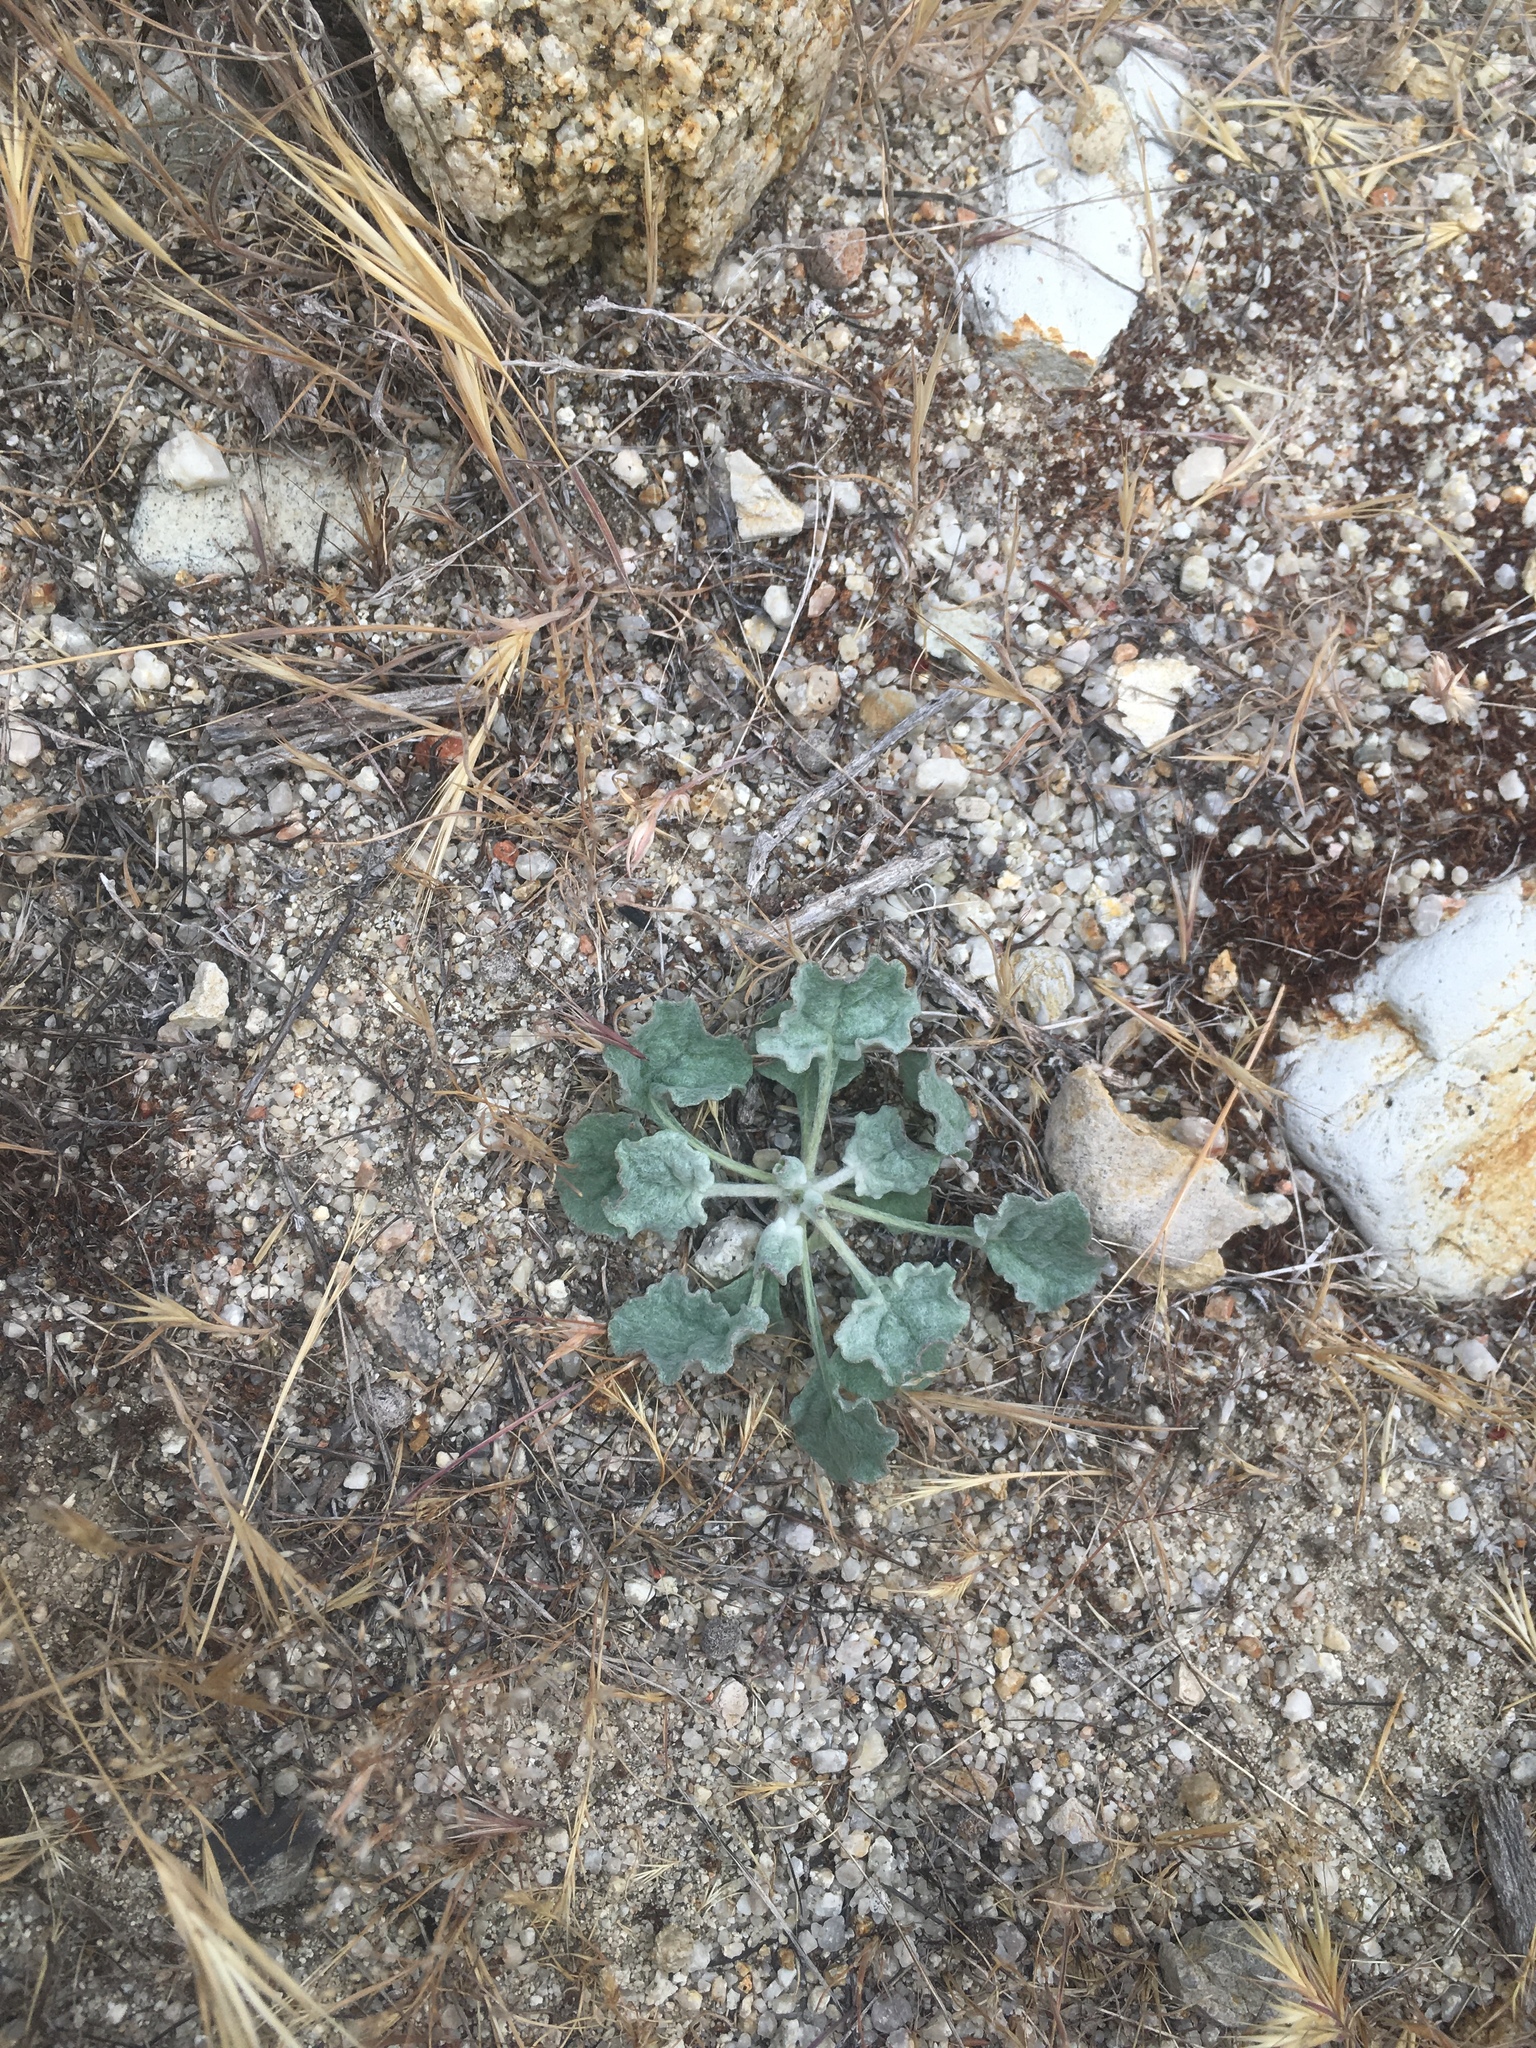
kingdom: Plantae
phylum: Tracheophyta
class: Magnoliopsida
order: Caryophyllales
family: Polygonaceae
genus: Eriogonum
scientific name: Eriogonum elegans
